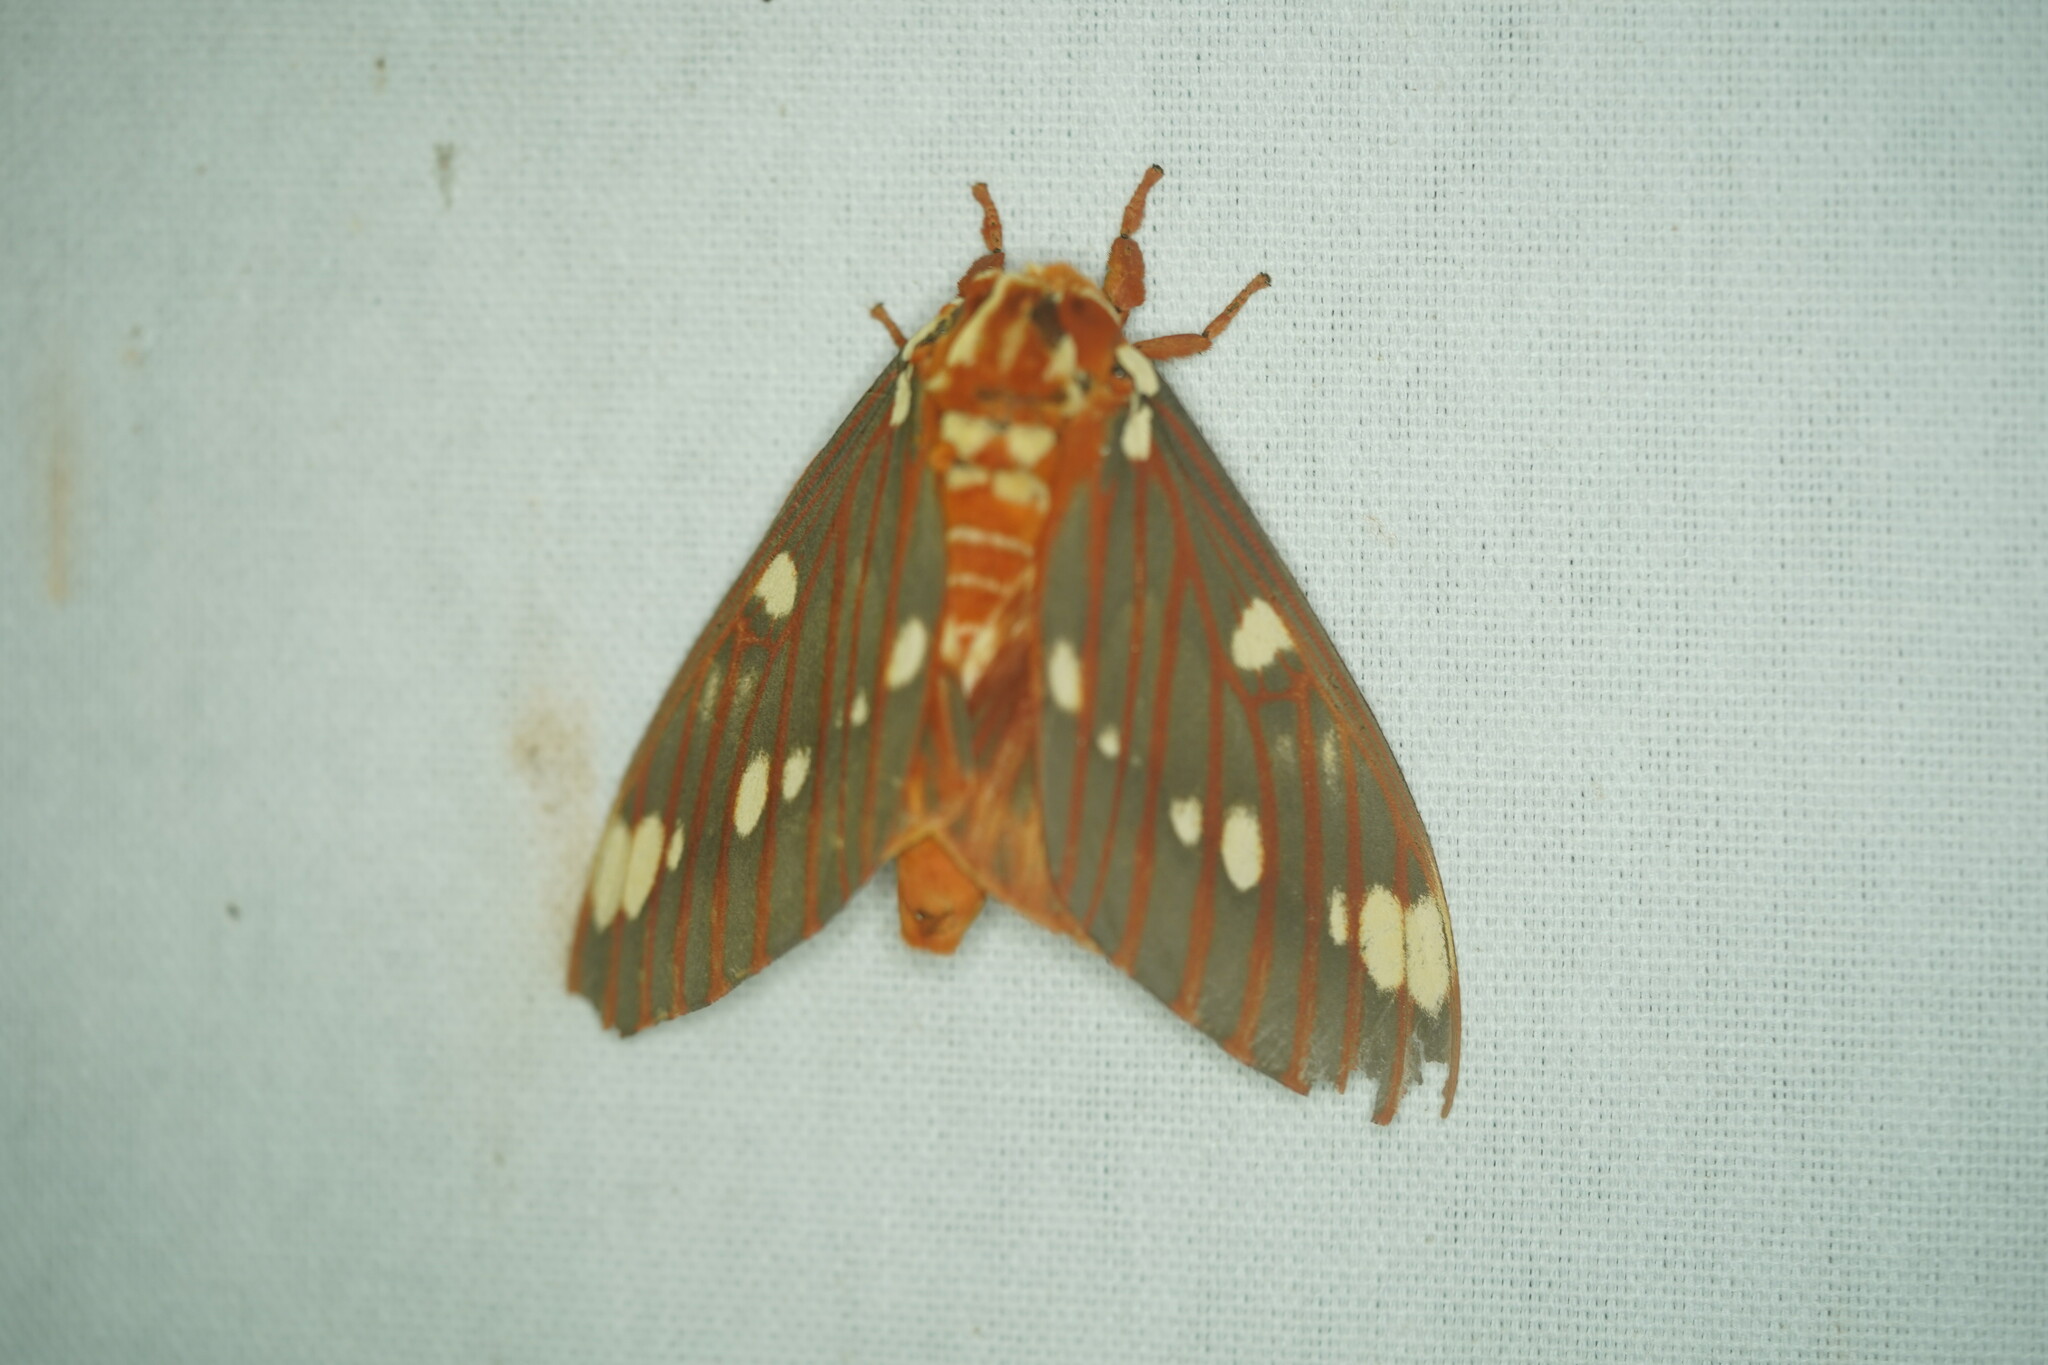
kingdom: Animalia
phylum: Arthropoda
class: Insecta
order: Lepidoptera
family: Saturniidae
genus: Citheronia
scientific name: Citheronia regalis
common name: Hickory horned devil
